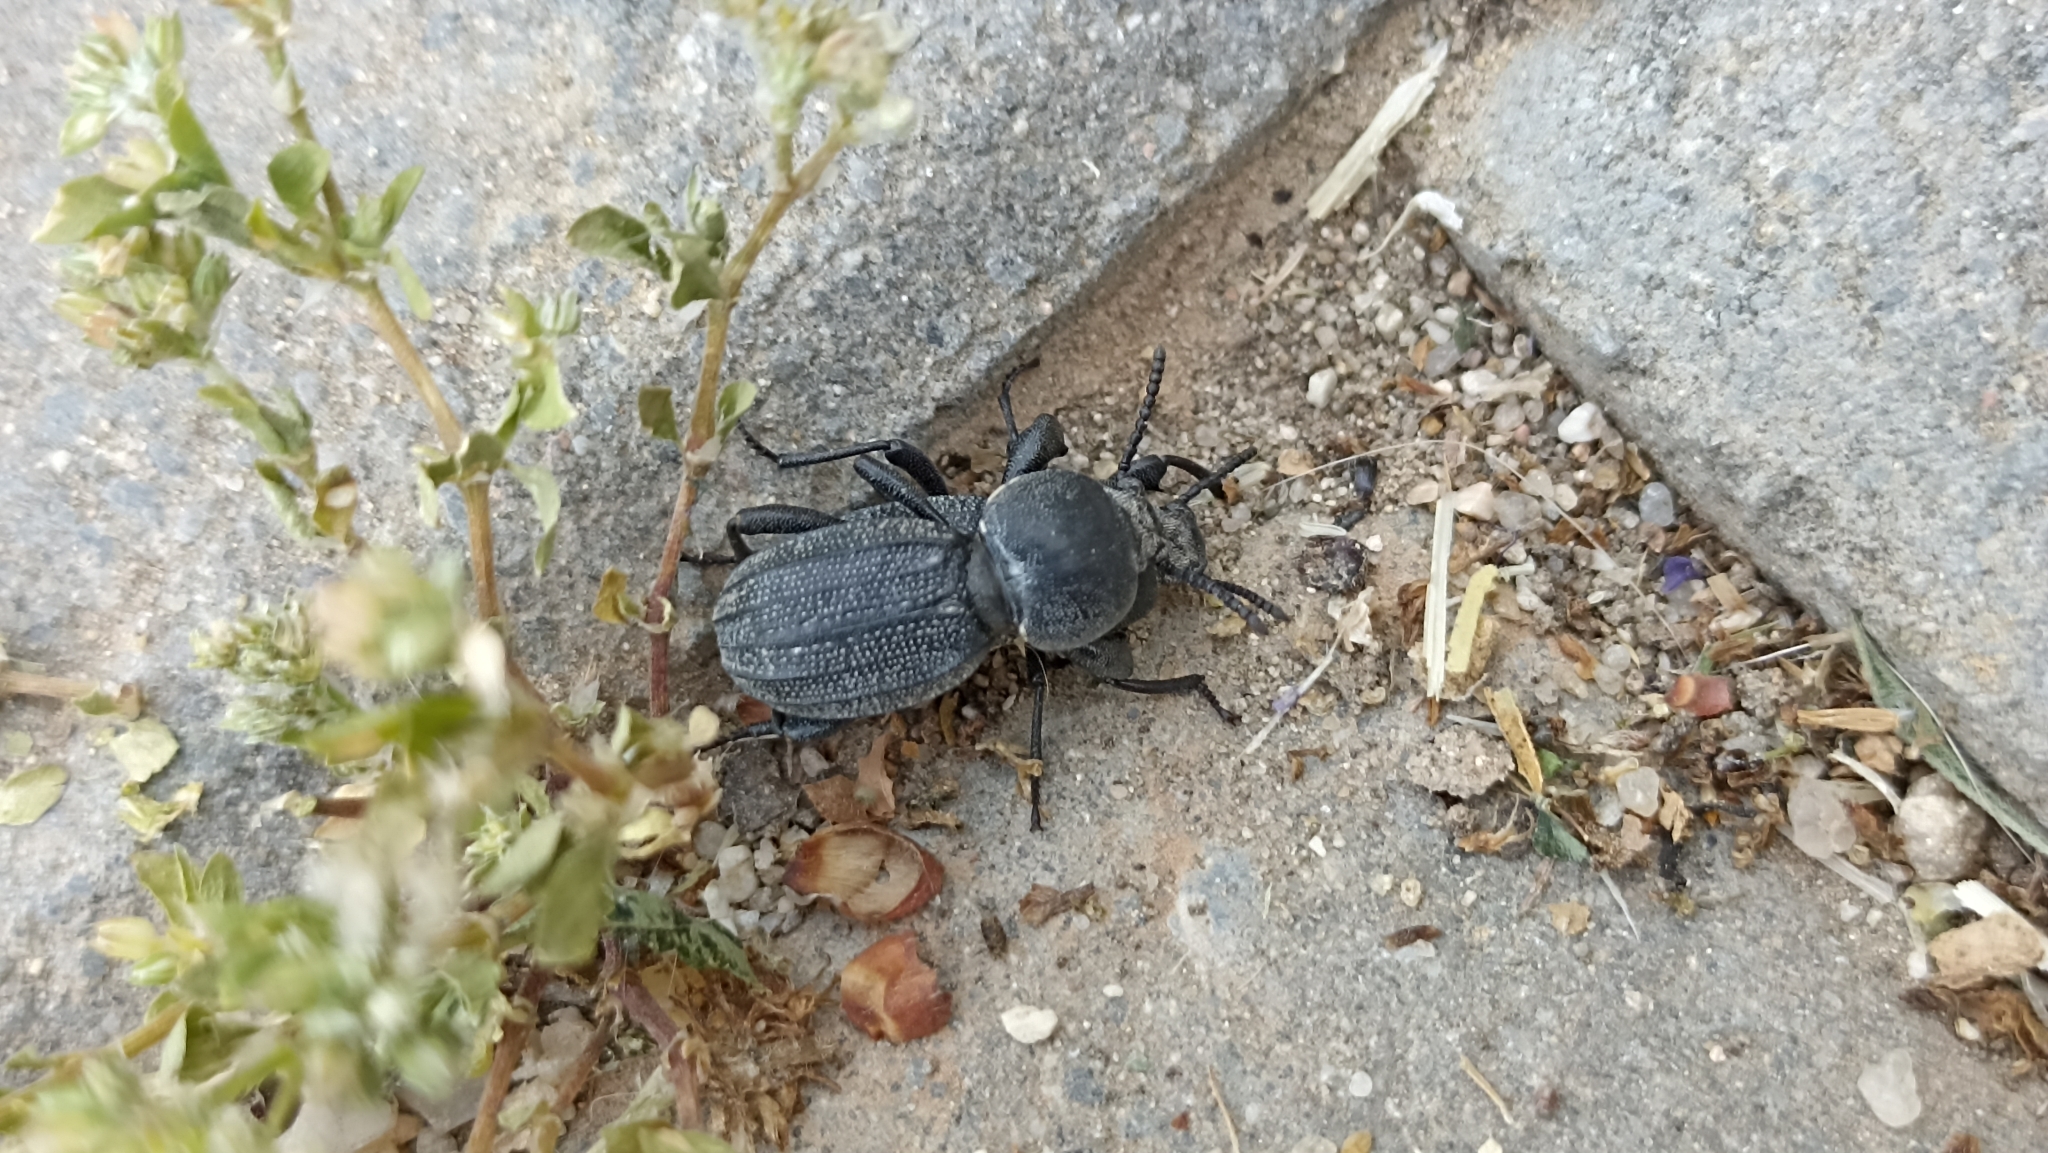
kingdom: Animalia
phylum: Arthropoda
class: Insecta
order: Coleoptera
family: Tenebrionidae
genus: Scaurus
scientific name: Scaurus uncinus
